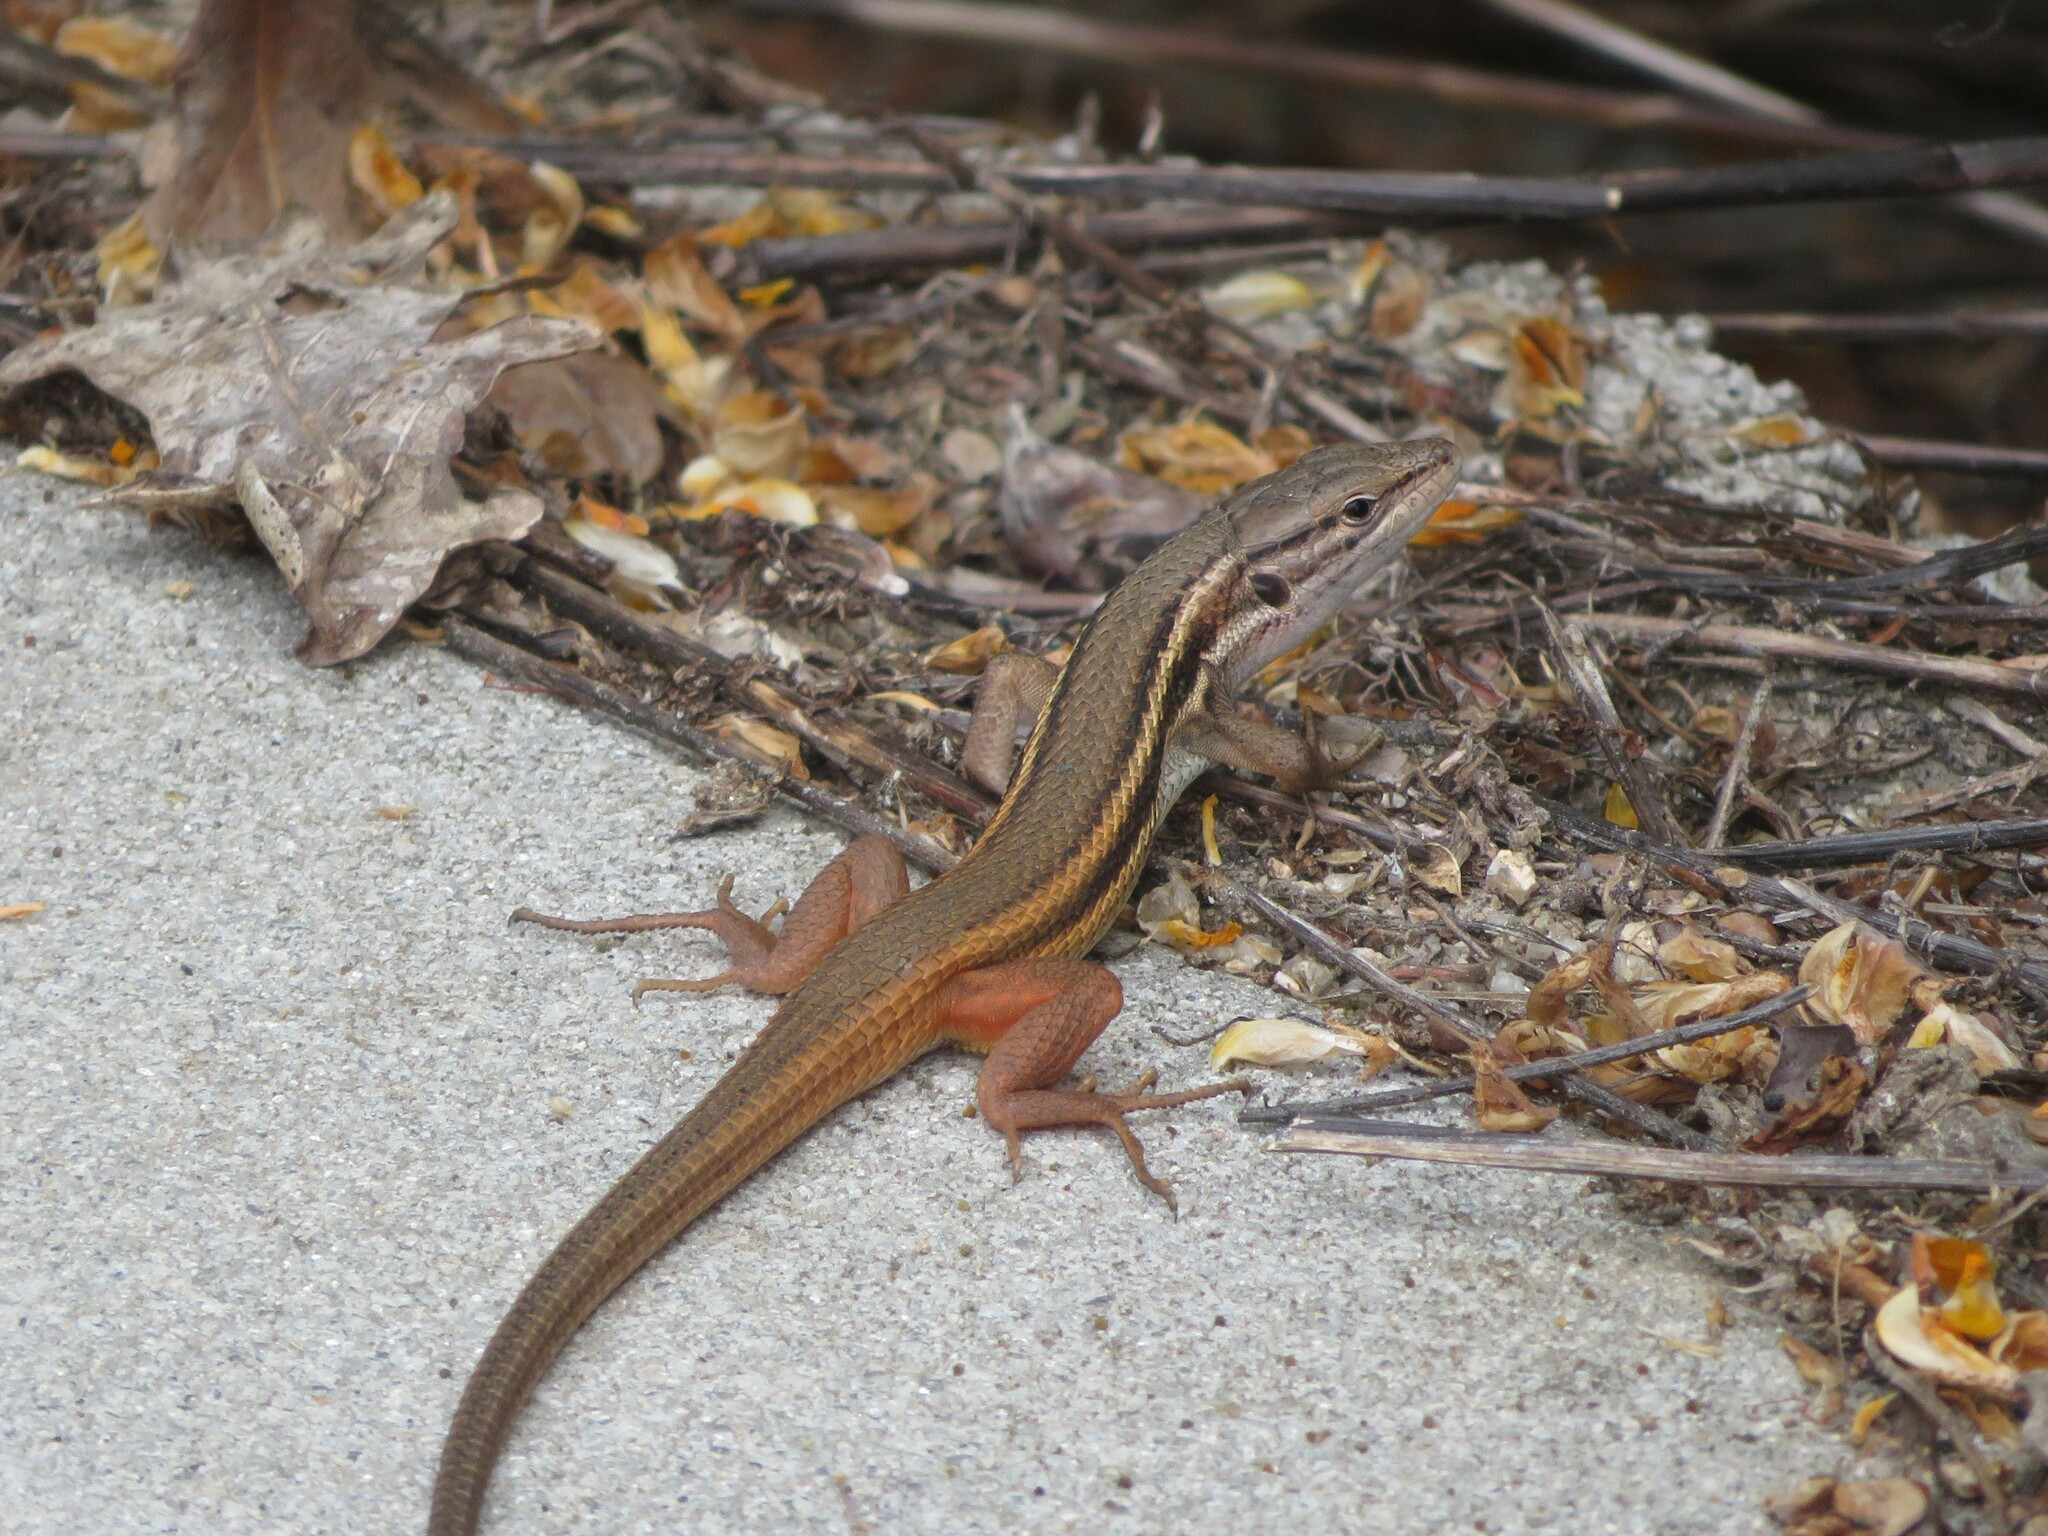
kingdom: Animalia
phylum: Chordata
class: Squamata
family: Lacertidae
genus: Psammodromus
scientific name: Psammodromus algirus
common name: Algerian psammodromus
